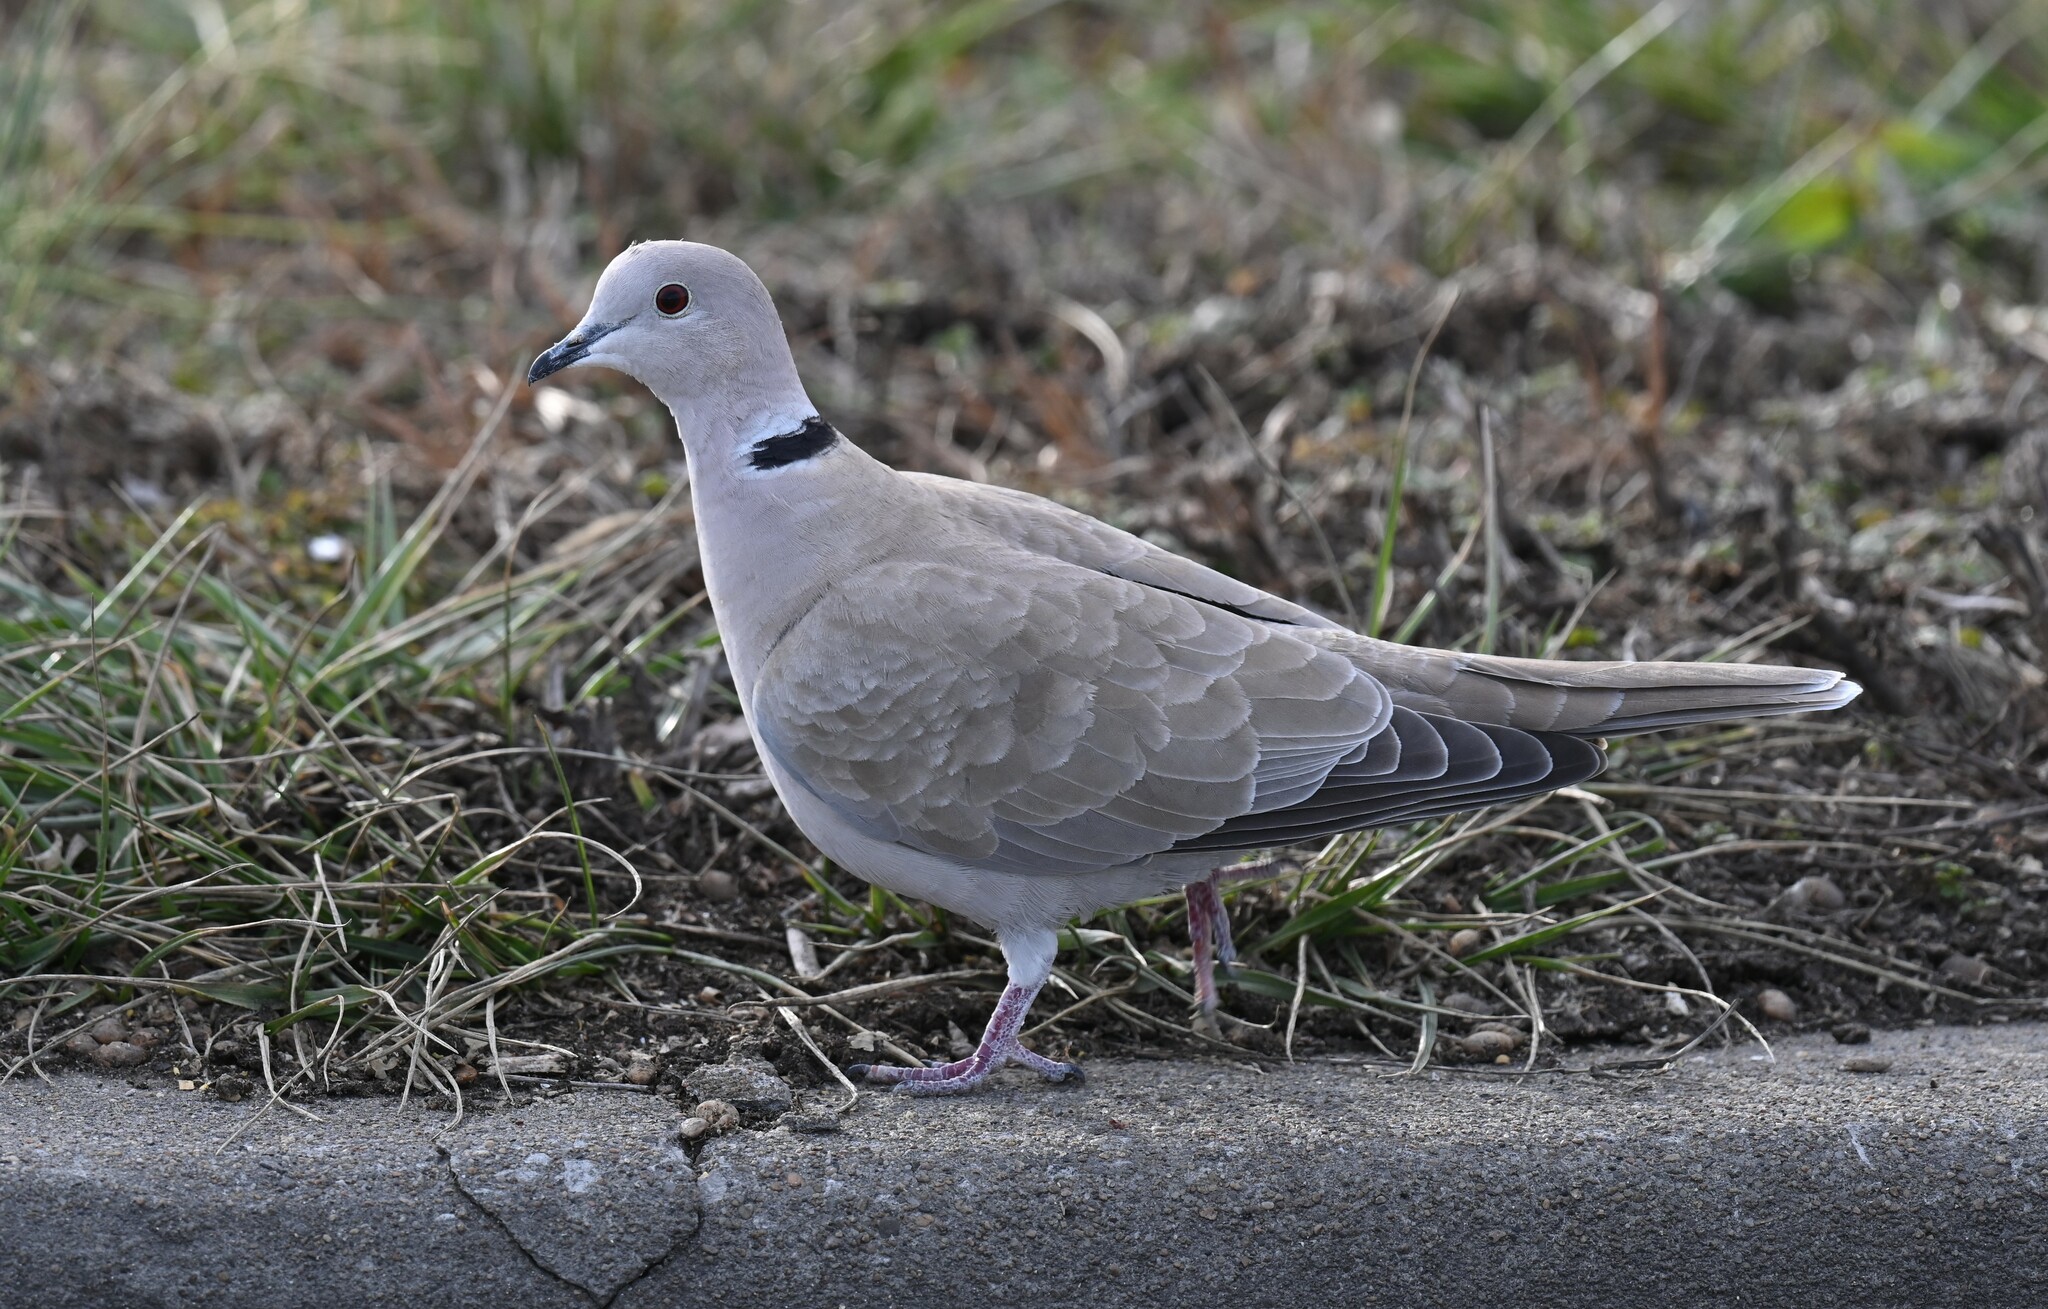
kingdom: Animalia
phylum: Chordata
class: Aves
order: Columbiformes
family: Columbidae
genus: Streptopelia
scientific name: Streptopelia decaocto
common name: Eurasian collared dove
